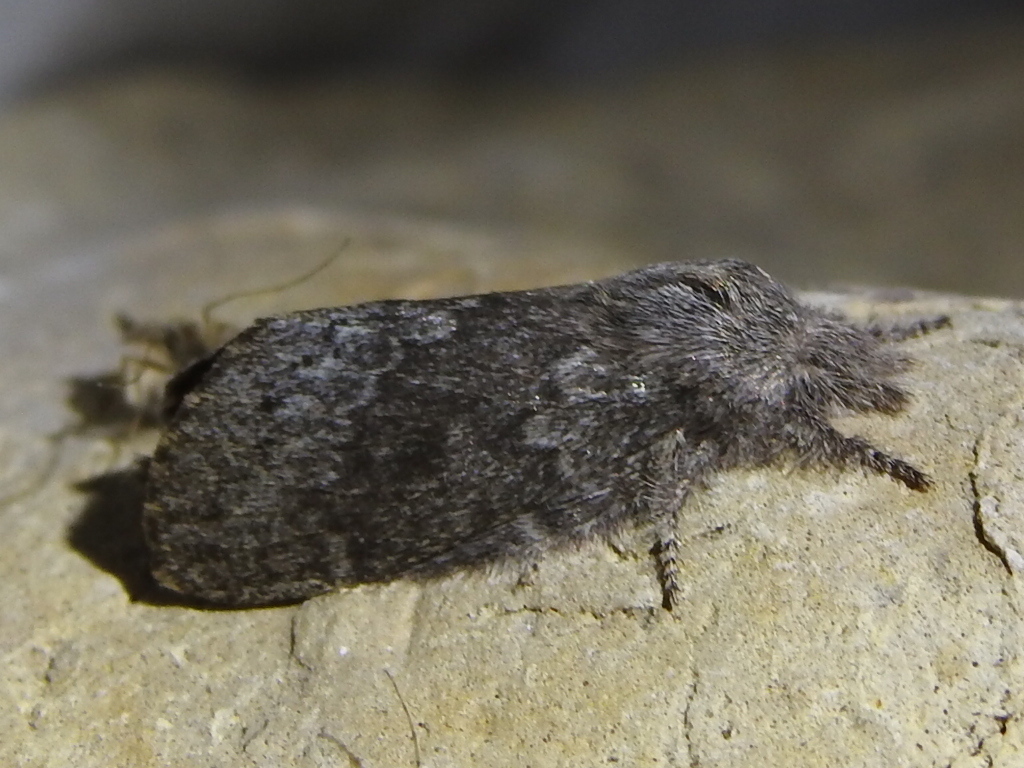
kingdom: Animalia
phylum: Arthropoda
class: Insecta
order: Lepidoptera
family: Lasiocampidae
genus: Heteropacha
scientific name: Heteropacha rileyana
